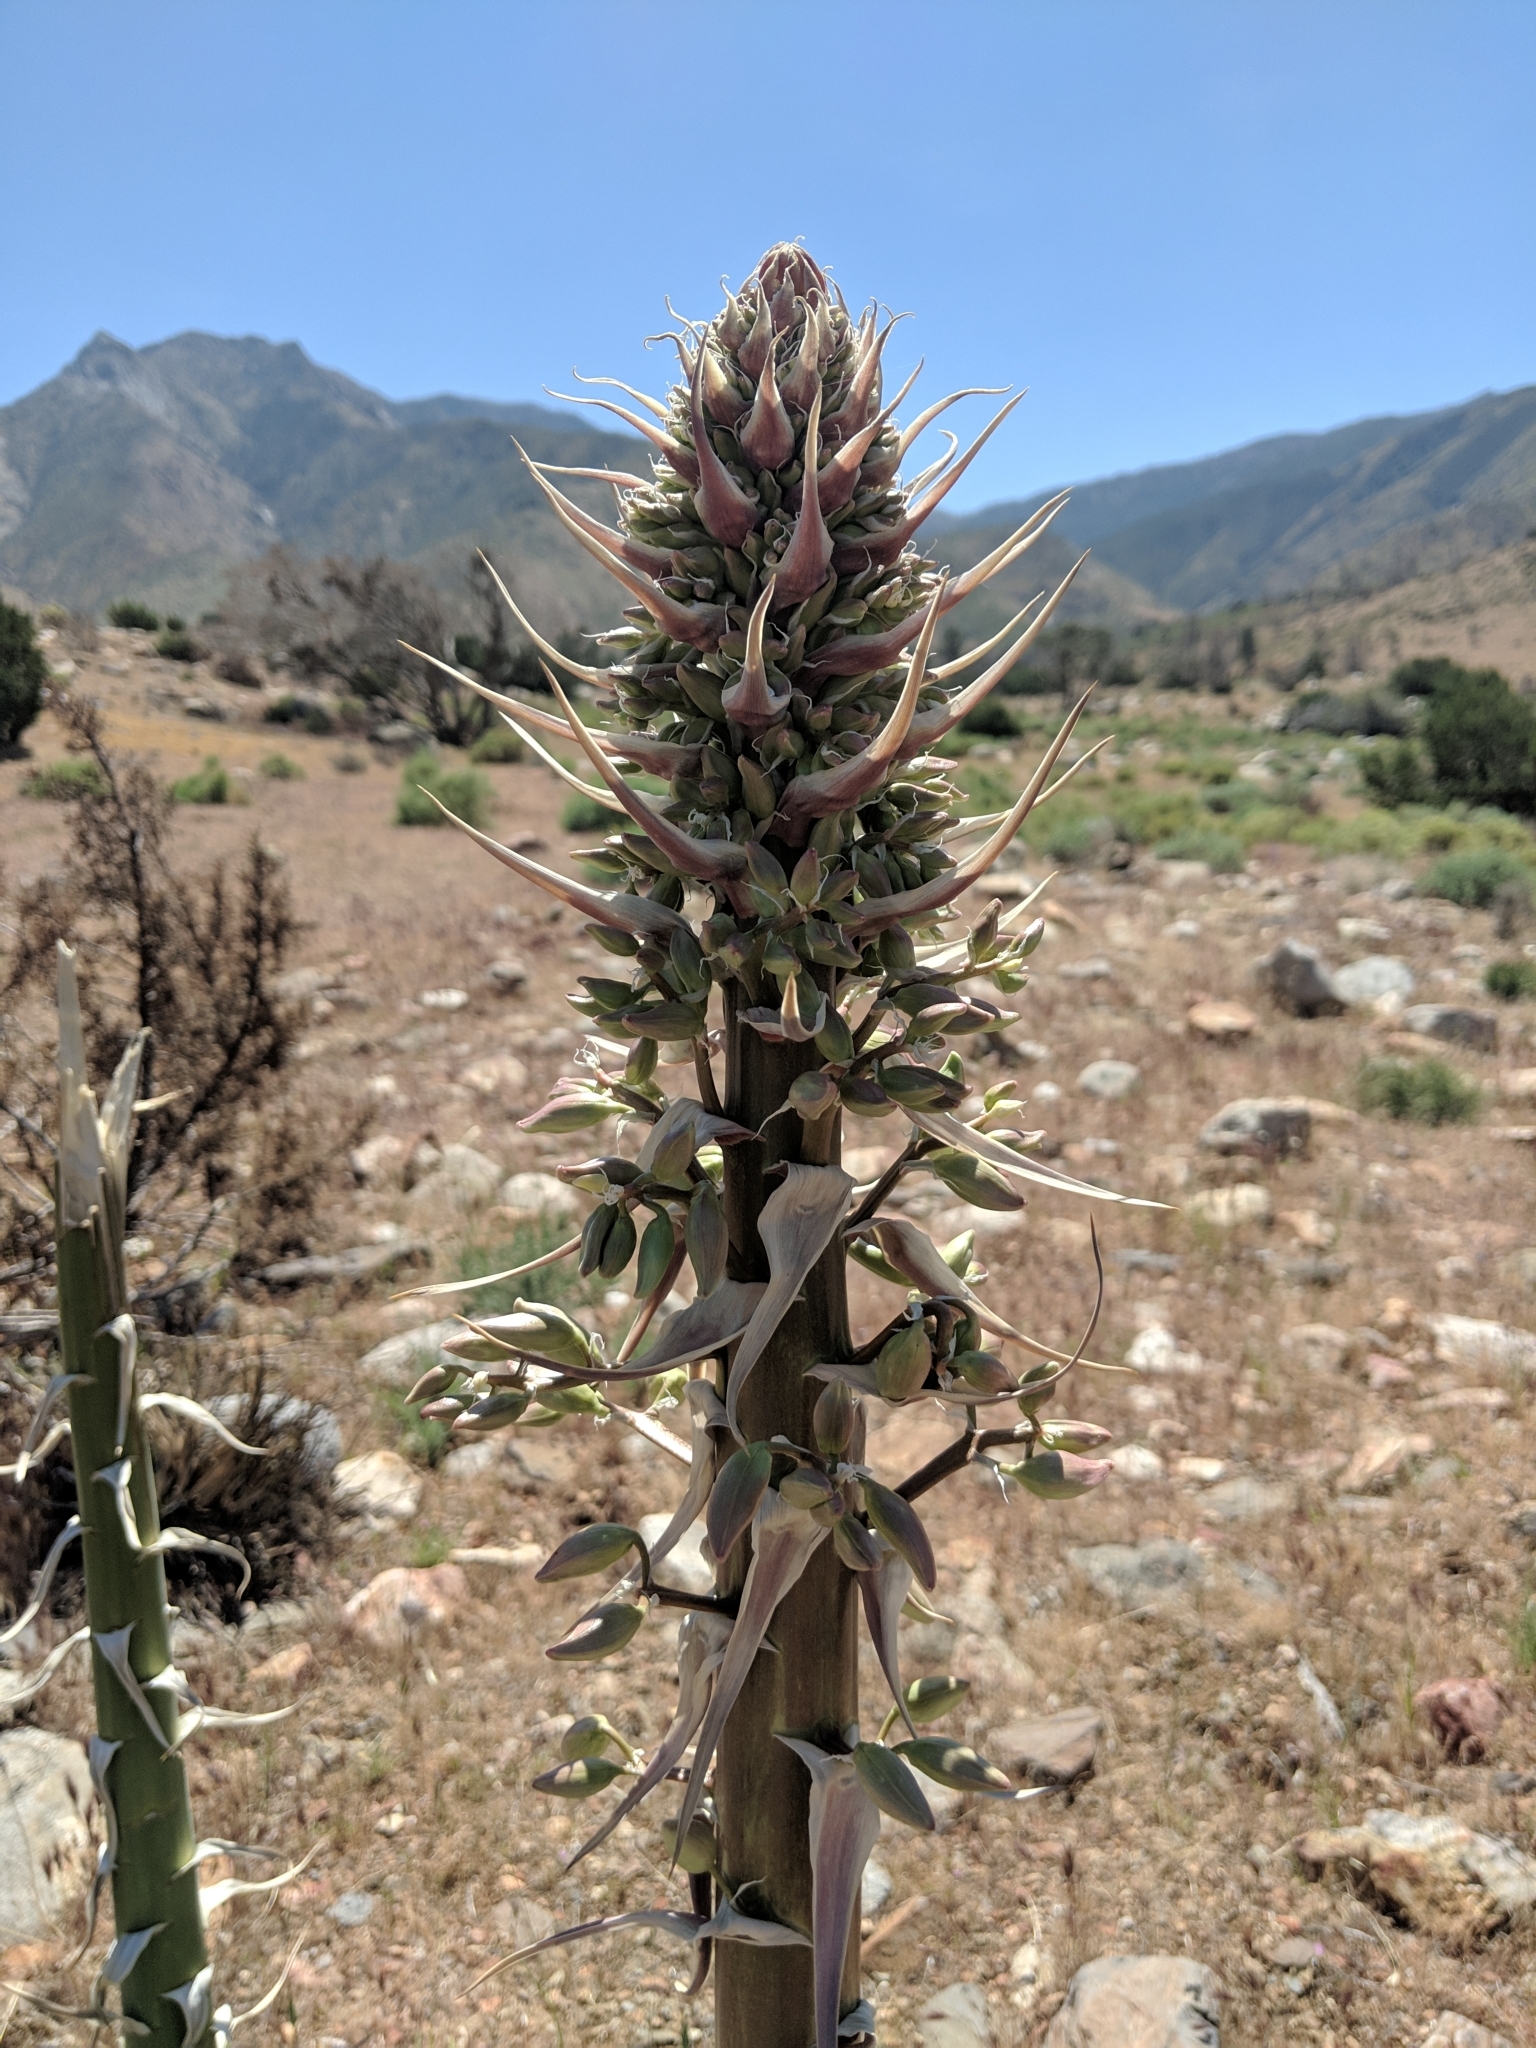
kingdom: Plantae
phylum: Tracheophyta
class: Liliopsida
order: Asparagales
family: Asparagaceae
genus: Hesperoyucca
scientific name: Hesperoyucca whipplei
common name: Our lord's-candle
